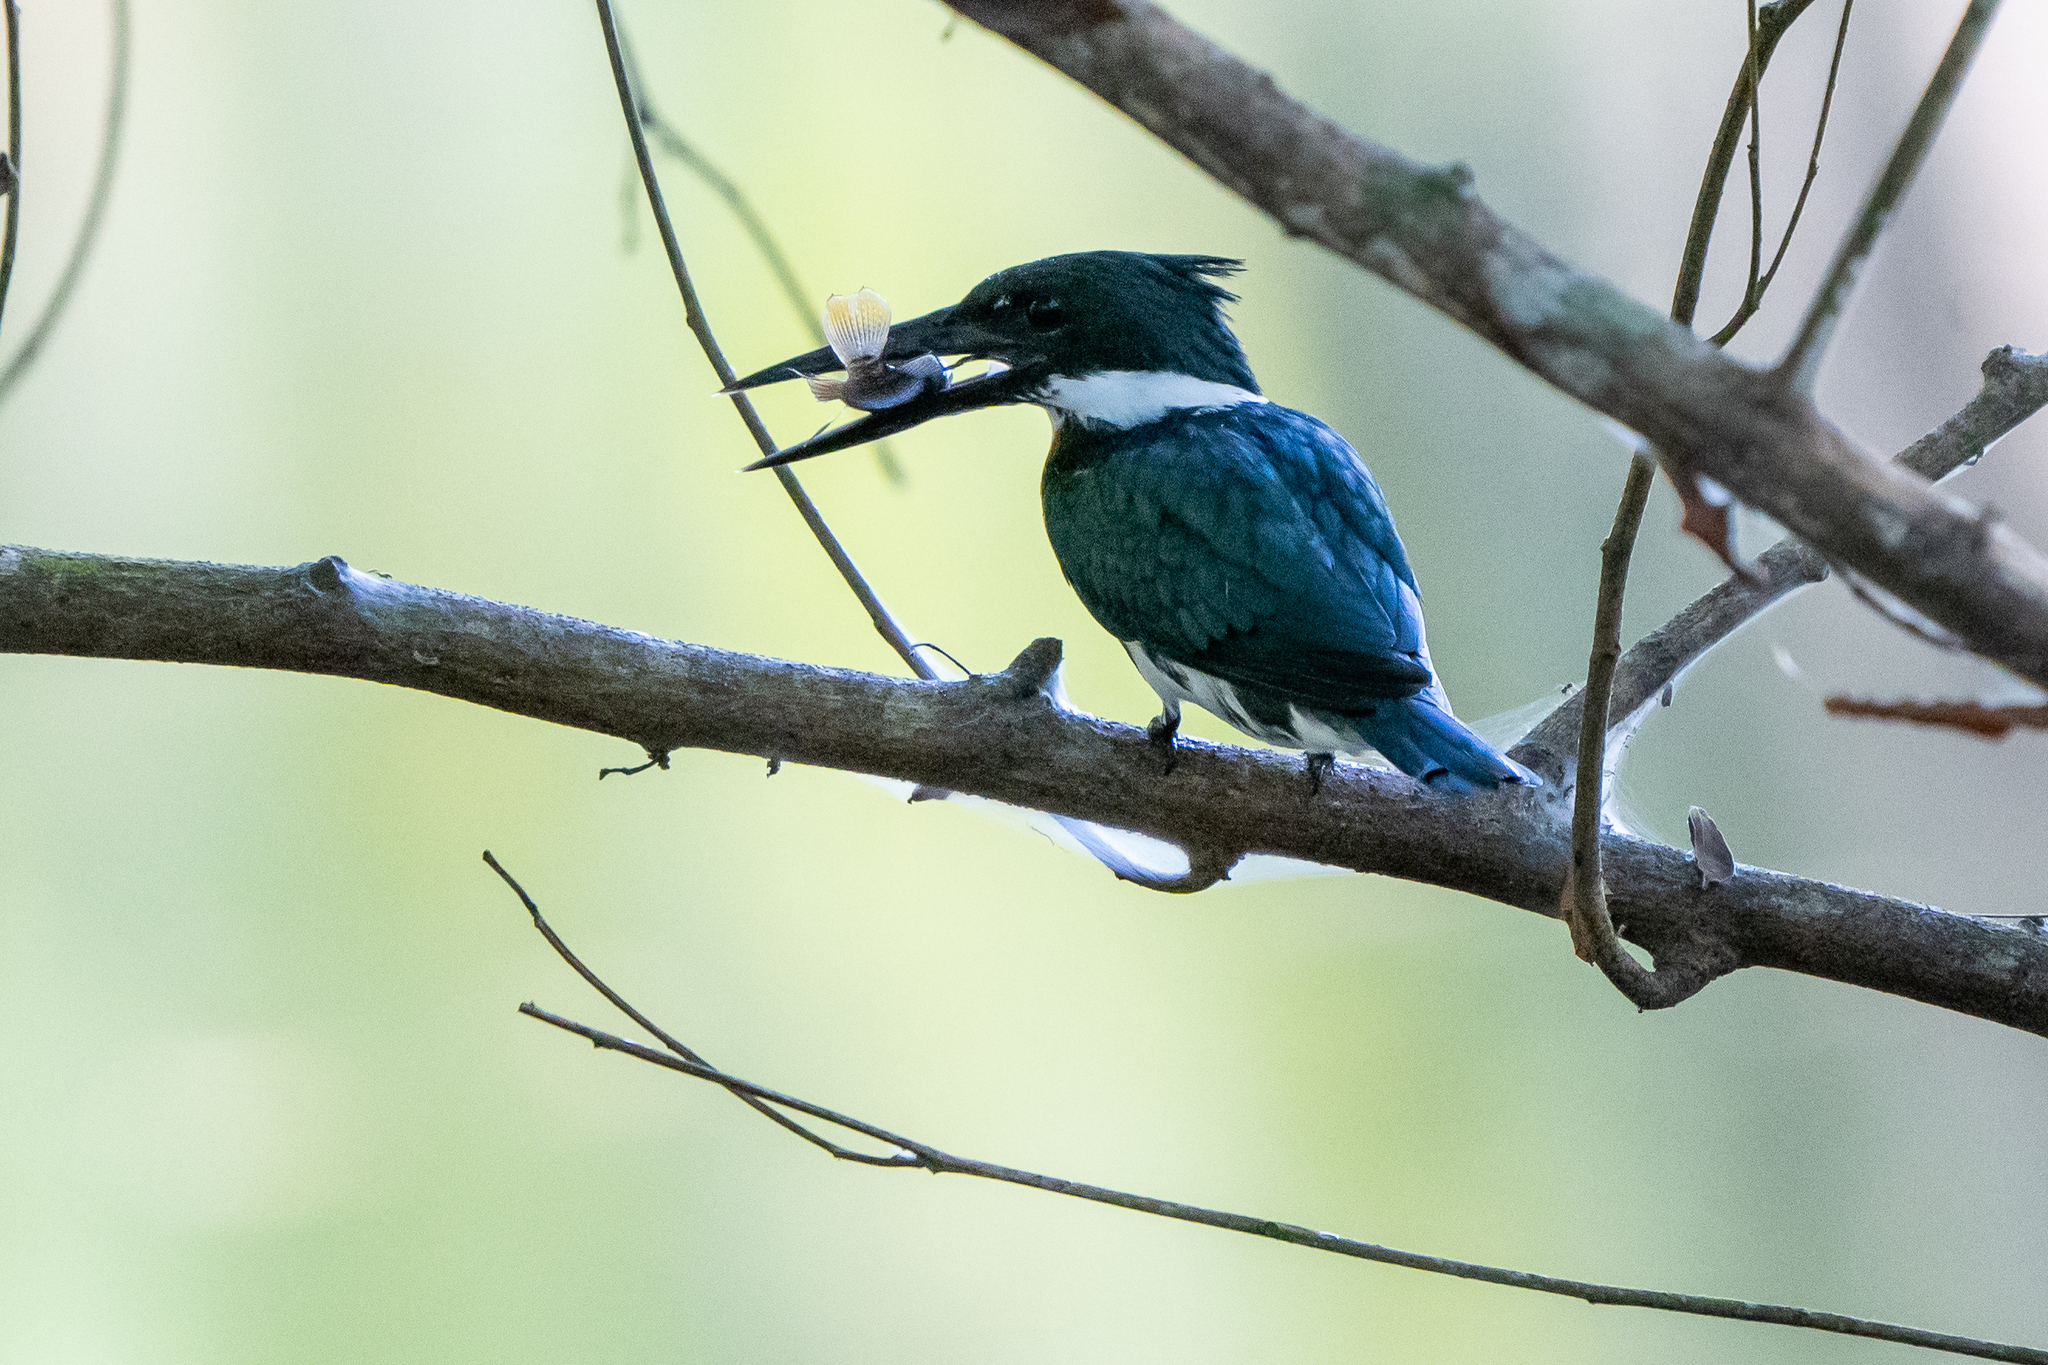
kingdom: Animalia
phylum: Chordata
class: Aves
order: Coraciiformes
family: Alcedinidae
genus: Chloroceryle
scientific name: Chloroceryle amazona
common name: Amazon kingfisher
